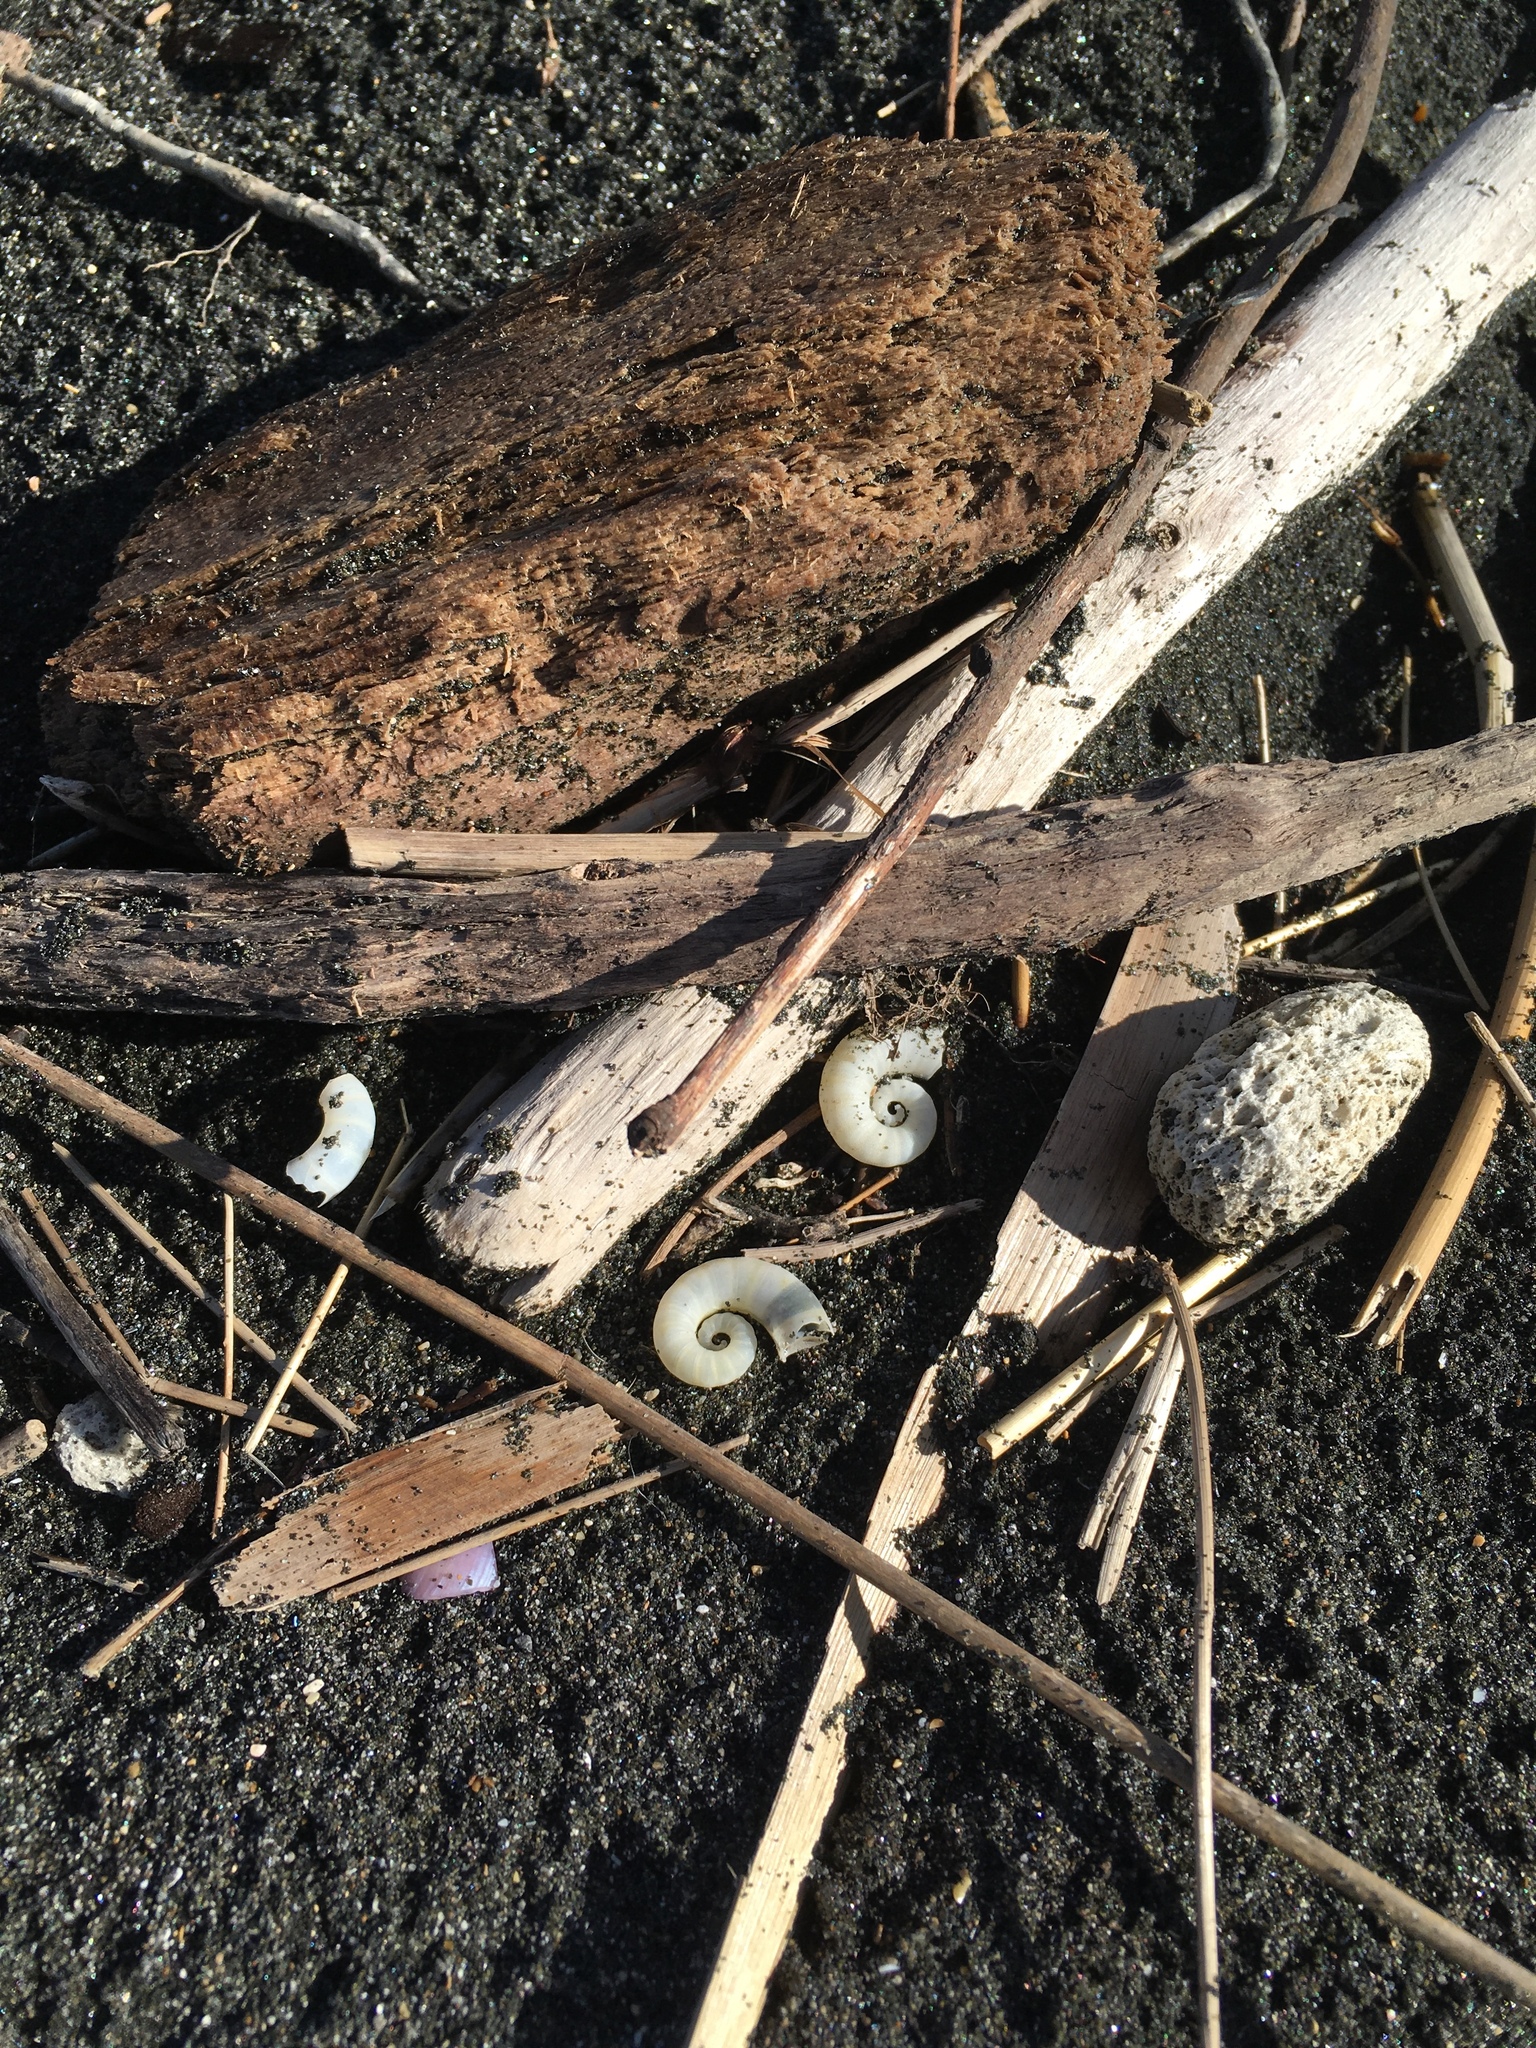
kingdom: Animalia
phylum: Mollusca
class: Cephalopoda
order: Spirulida
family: Spirulidae
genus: Spirula
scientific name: Spirula spirula
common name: Ram's horn squid
